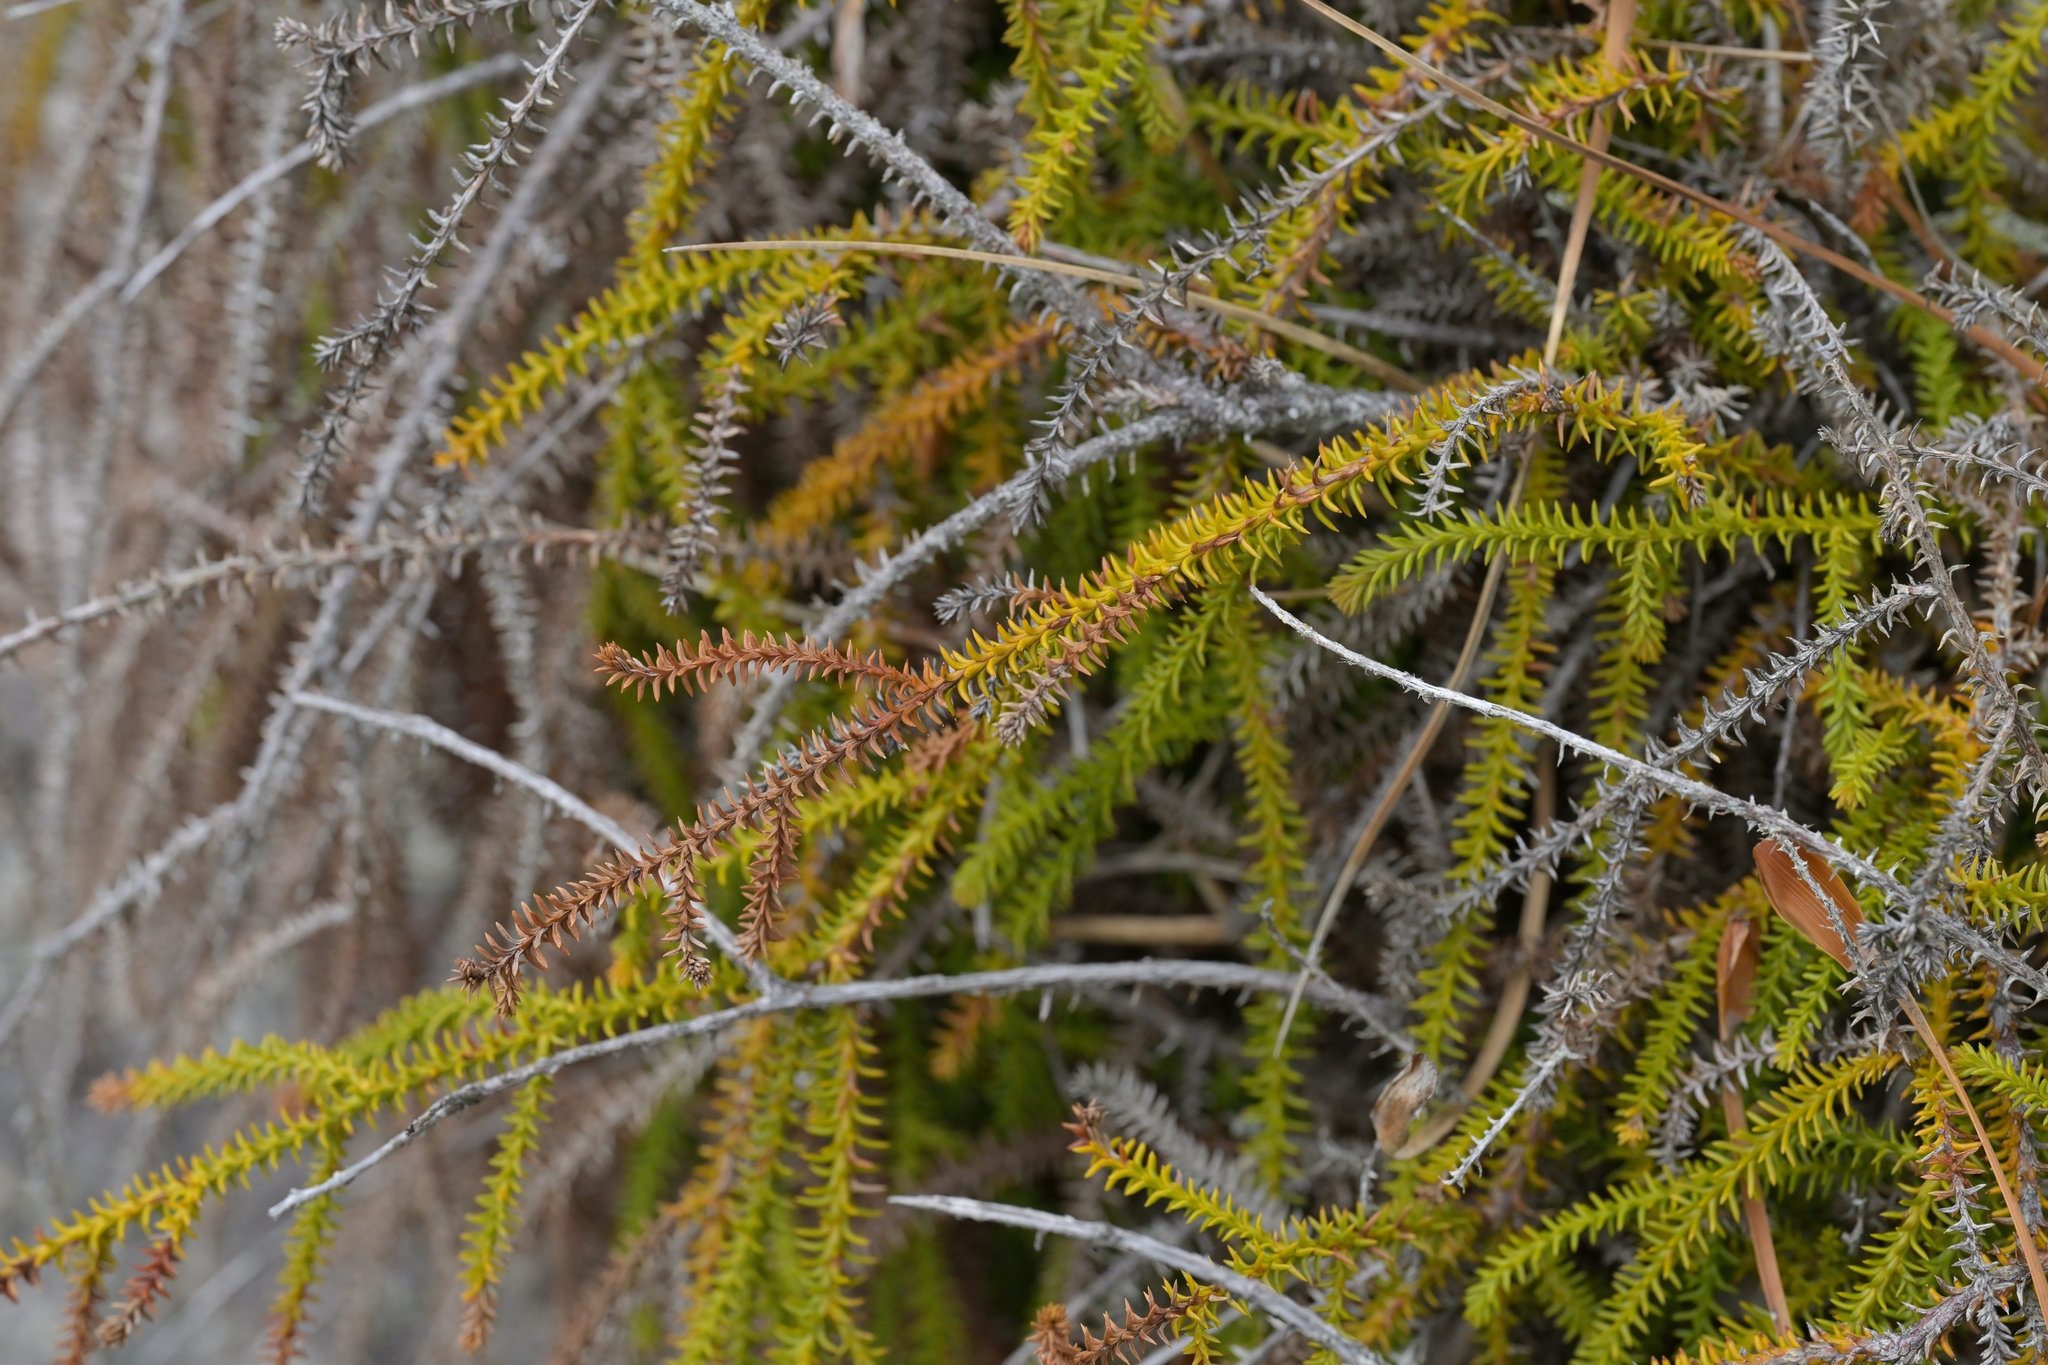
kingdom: Plantae
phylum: Tracheophyta
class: Pinopsida
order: Pinales
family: Podocarpaceae
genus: Dacrydium
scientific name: Dacrydium cupressinum
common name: Red pine
